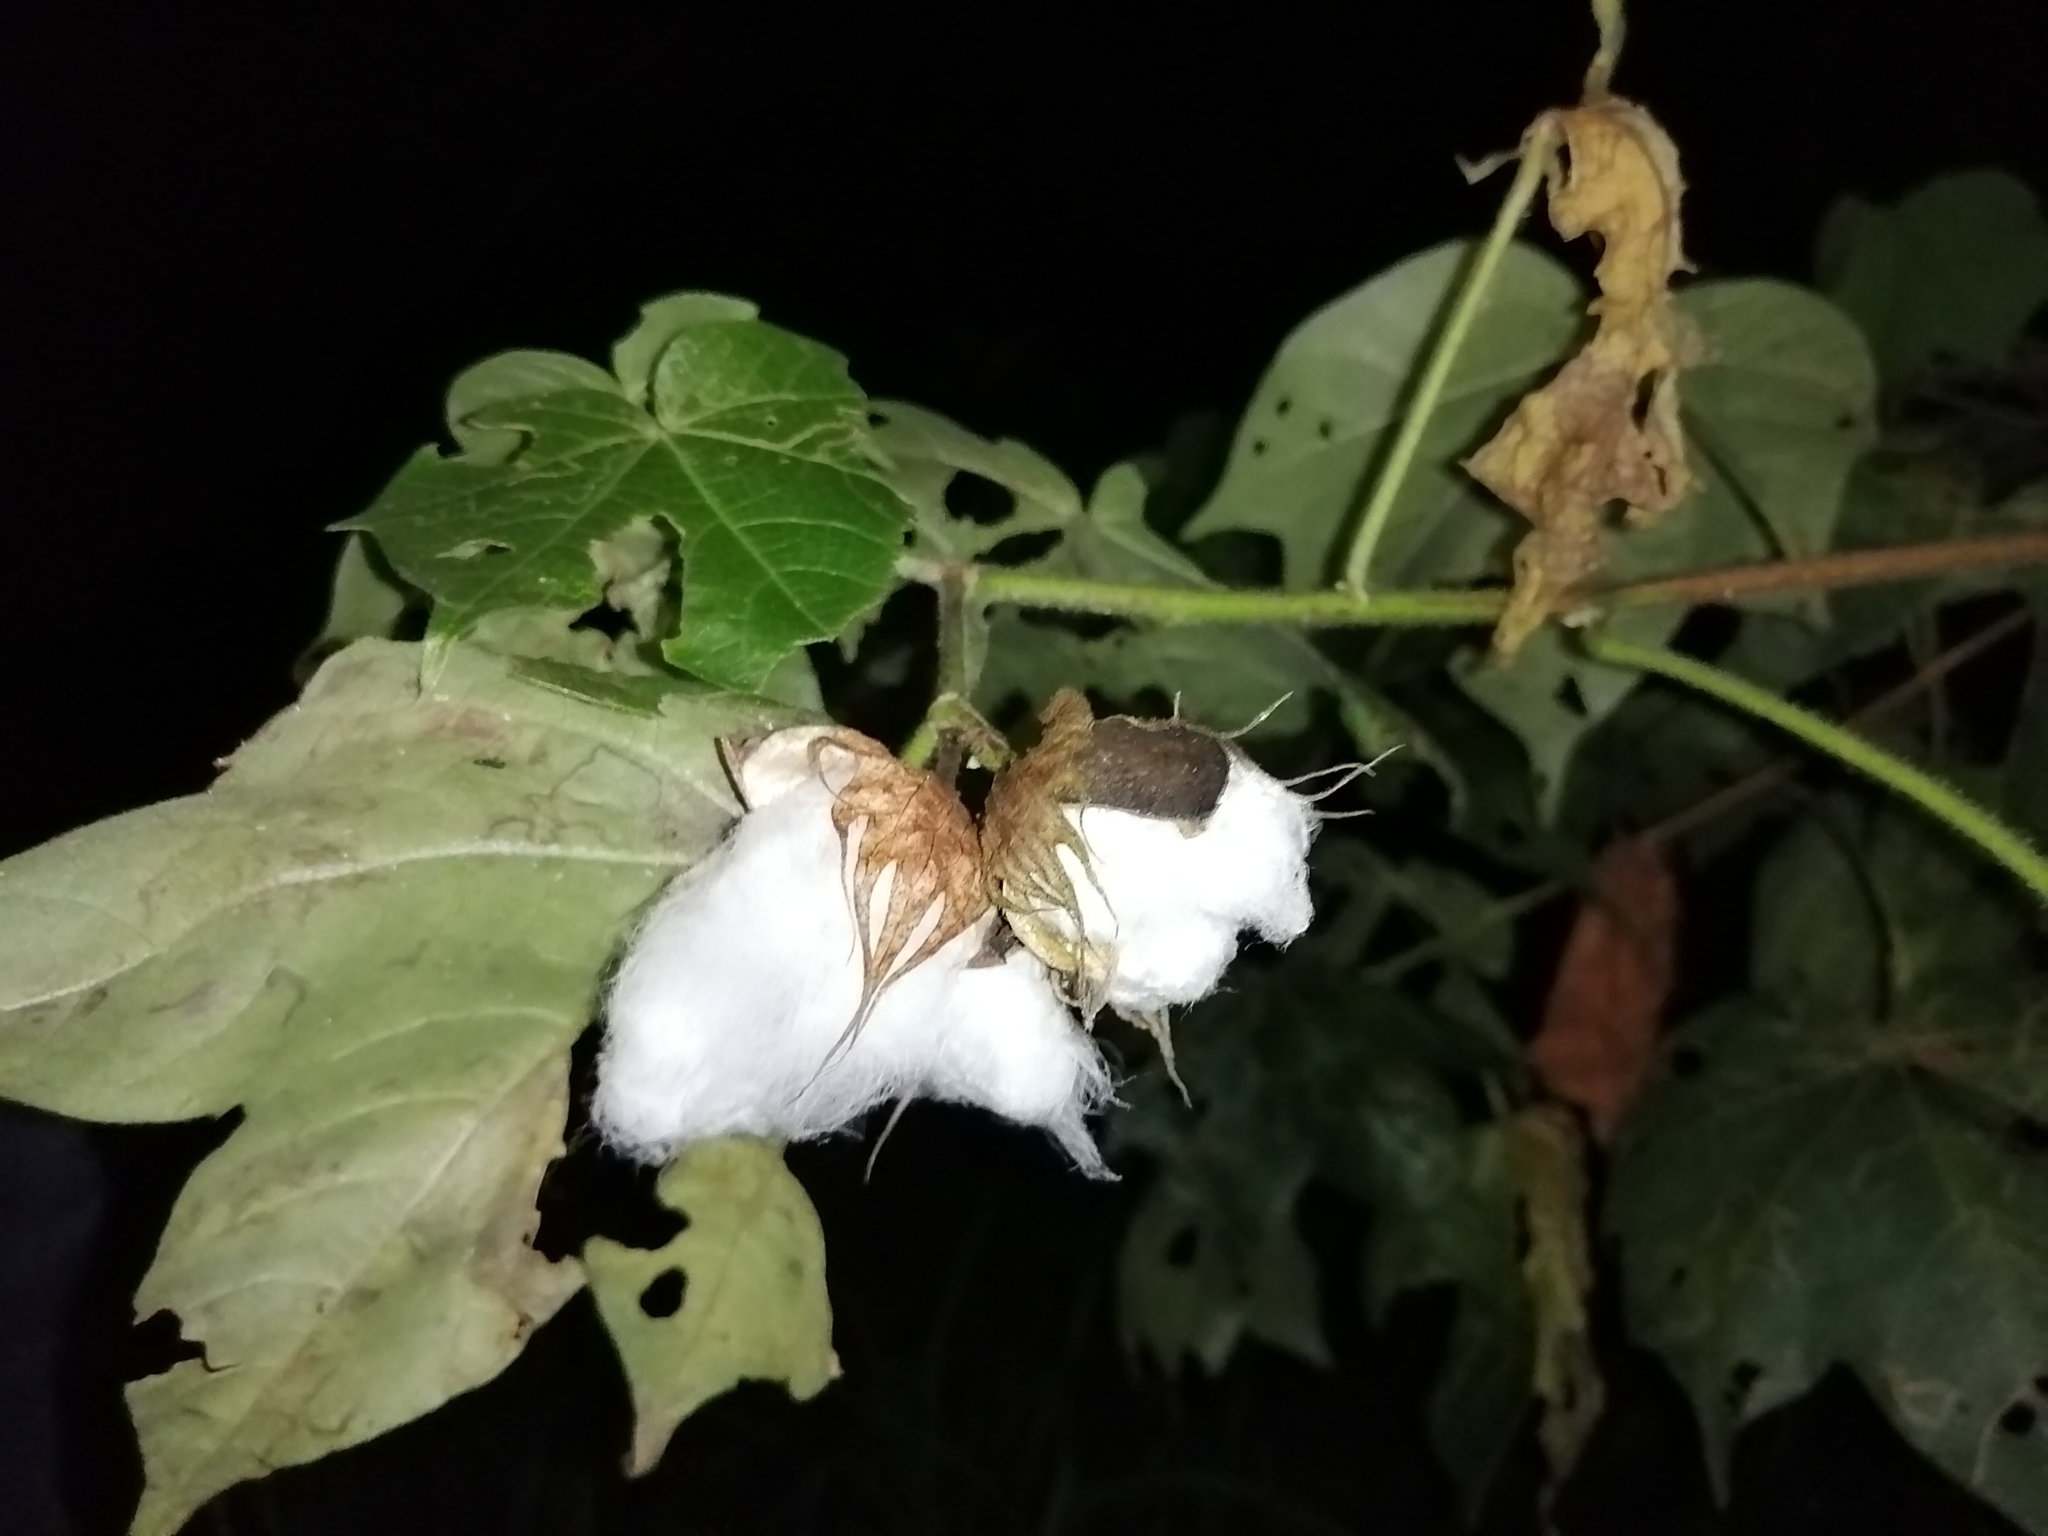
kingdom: Plantae
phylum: Tracheophyta
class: Magnoliopsida
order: Malvales
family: Malvaceae
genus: Gossypium
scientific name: Gossypium hirsutum
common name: Cotton
